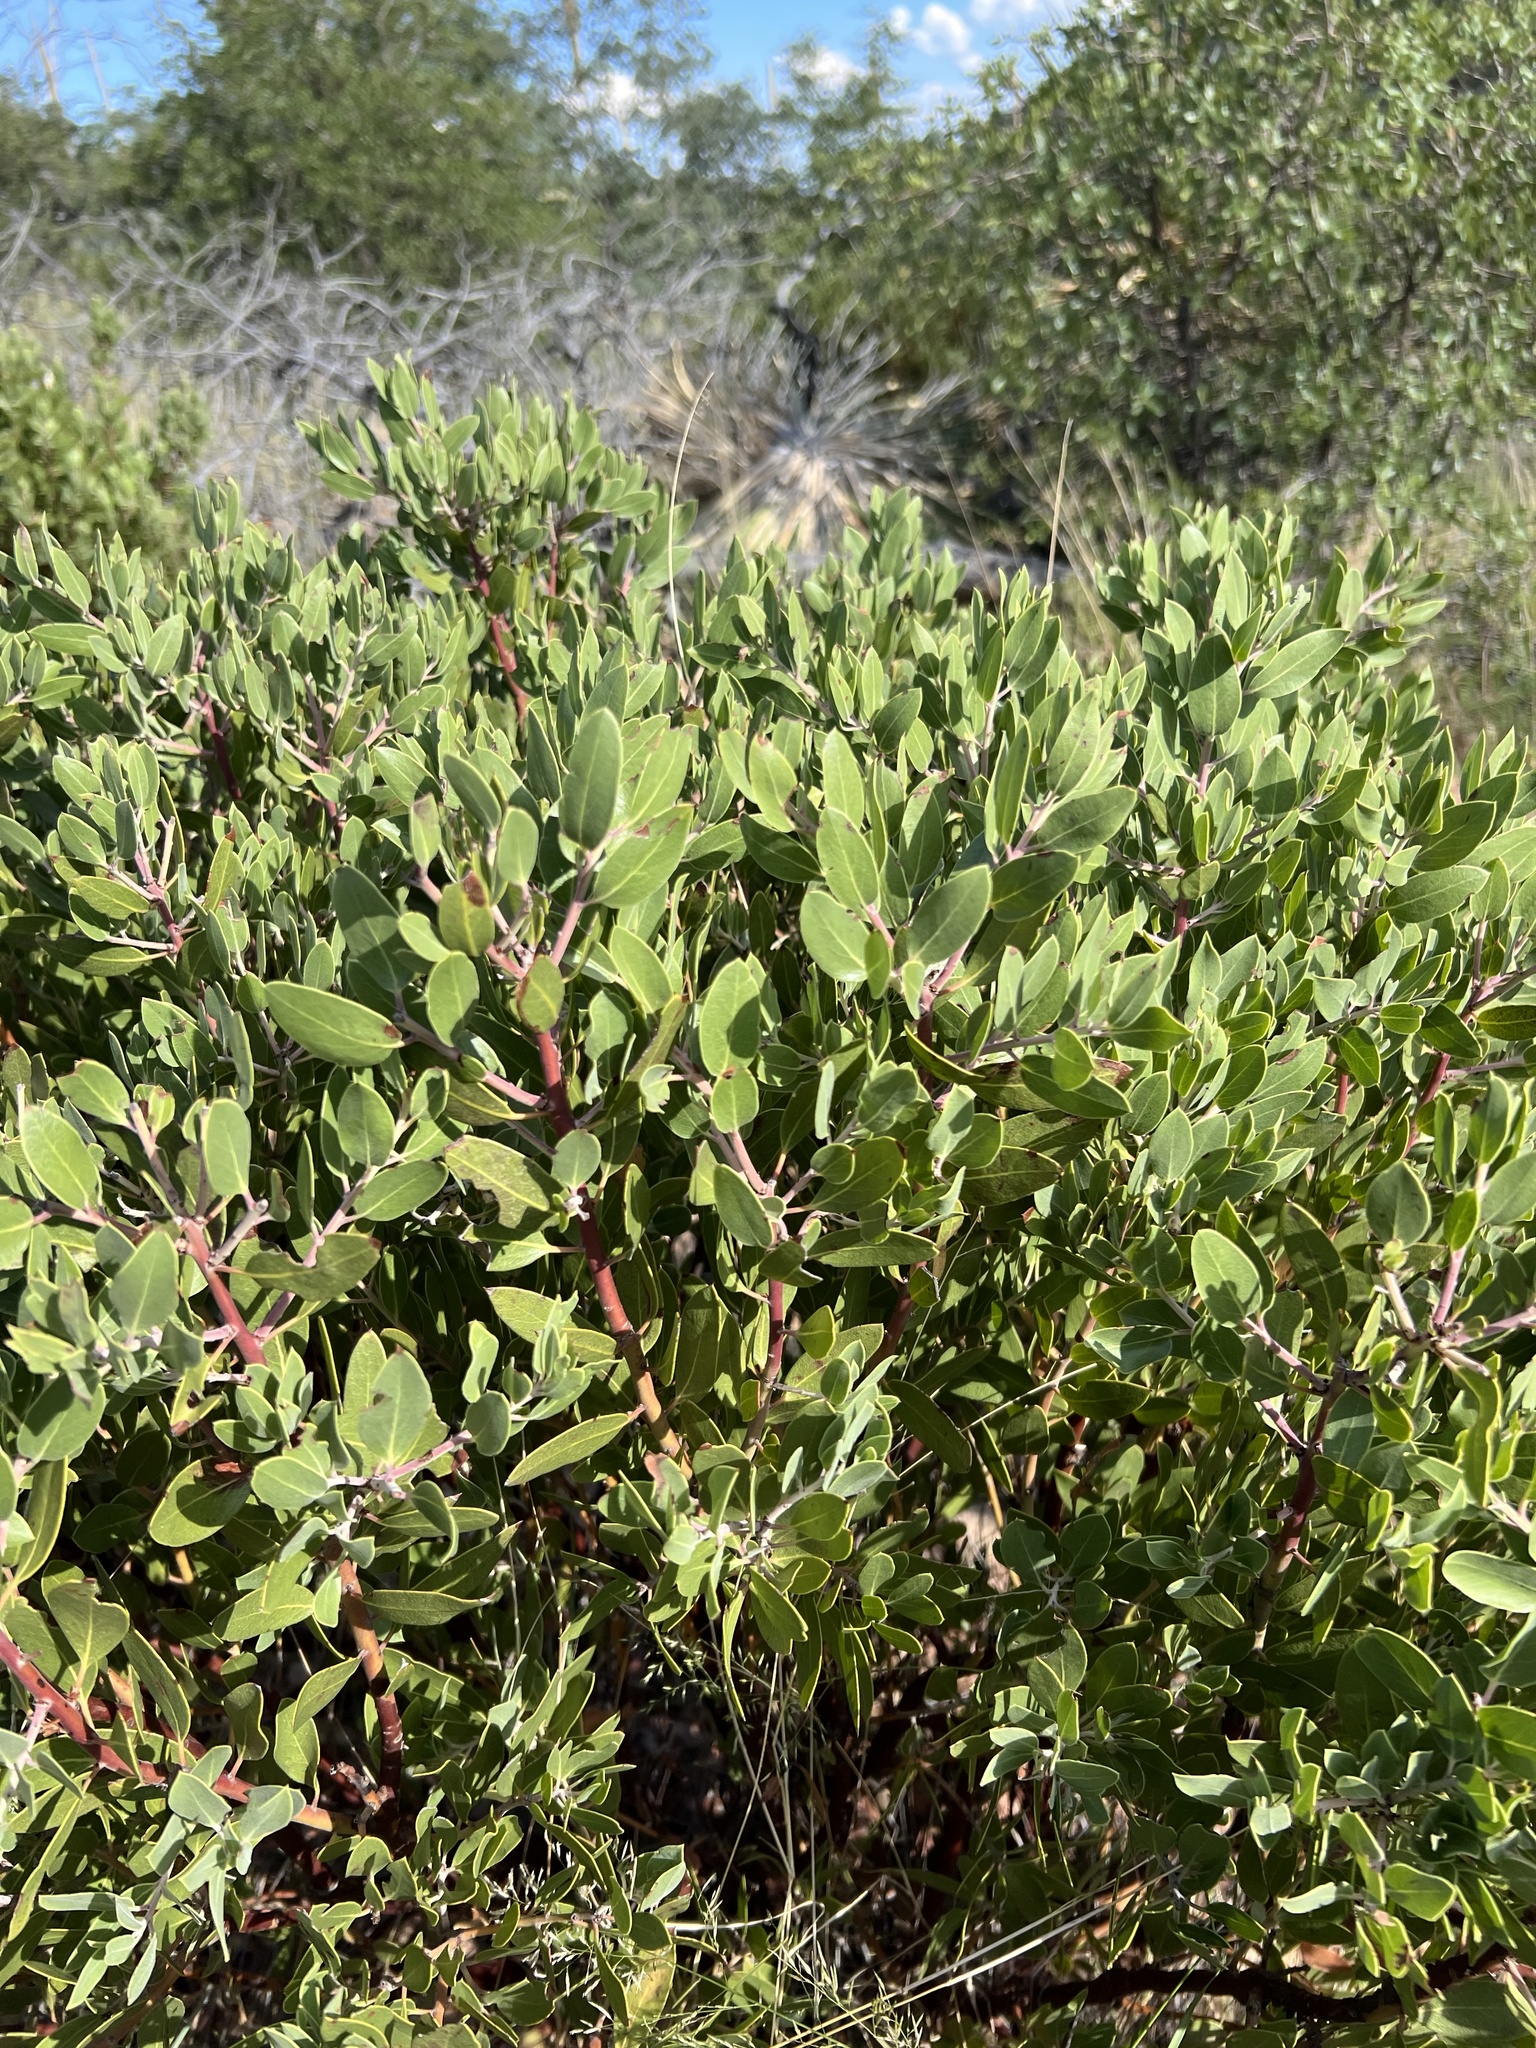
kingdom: Plantae
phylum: Tracheophyta
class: Magnoliopsida
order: Ericales
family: Ericaceae
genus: Arctostaphylos
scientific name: Arctostaphylos pungens
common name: Mexican manzanita
